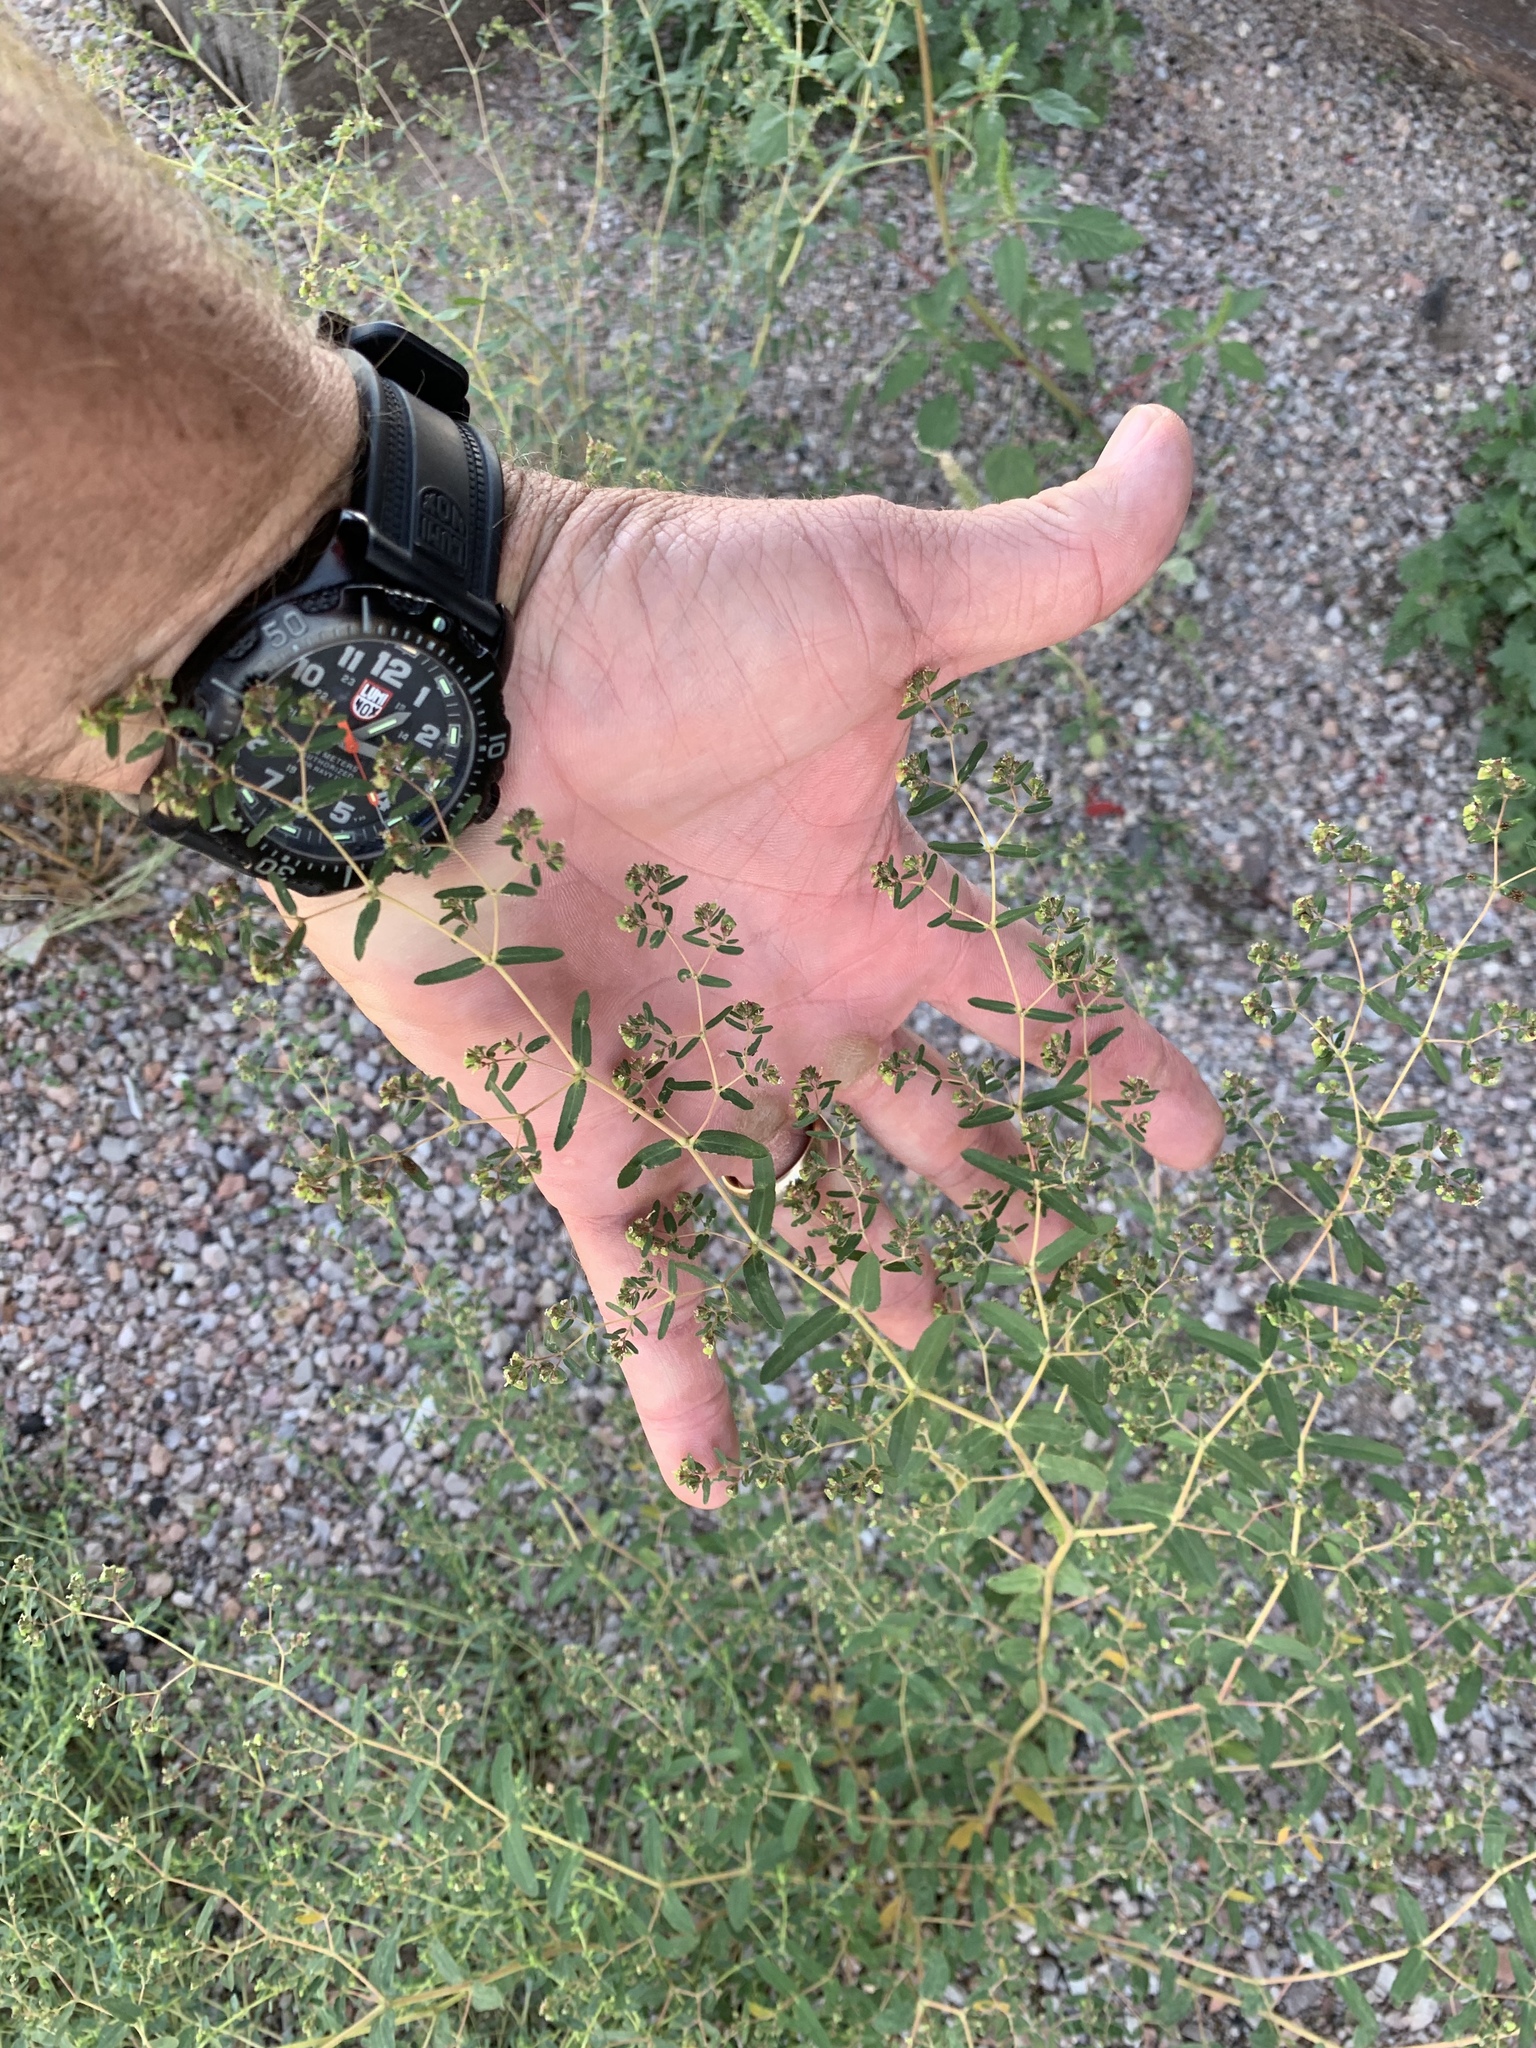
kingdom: Plantae
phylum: Tracheophyta
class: Magnoliopsida
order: Malpighiales
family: Euphorbiaceae
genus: Euphorbia
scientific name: Euphorbia hyssopifolia
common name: Hyssopleaf sandmat
